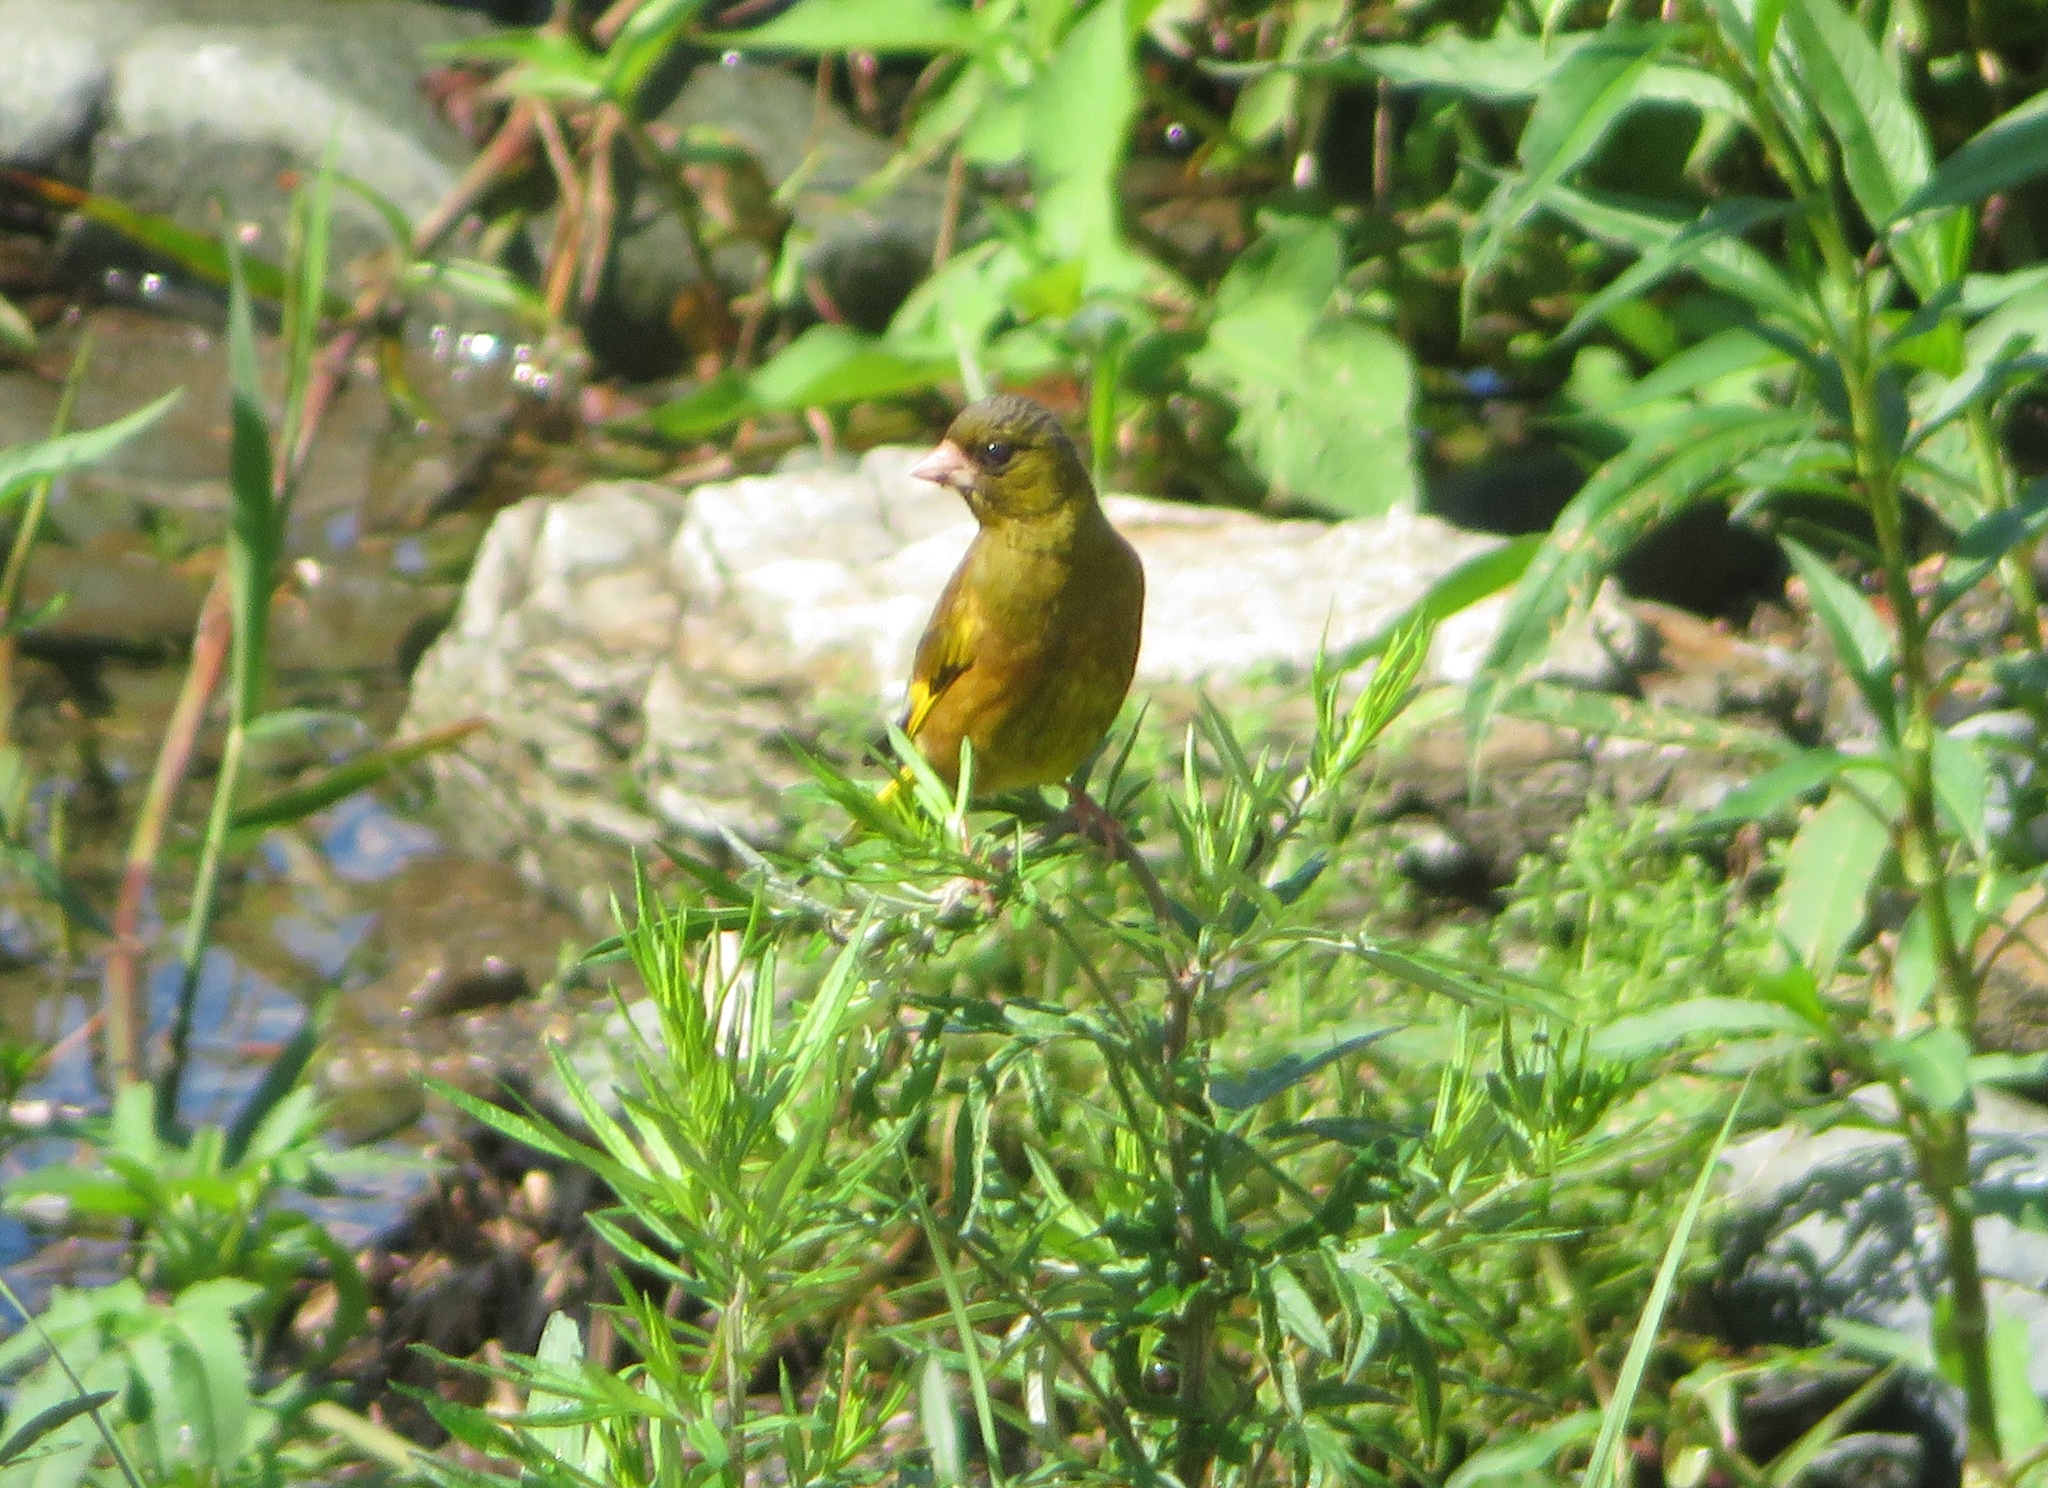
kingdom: Plantae
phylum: Tracheophyta
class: Liliopsida
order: Poales
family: Poaceae
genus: Chloris
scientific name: Chloris sinica
